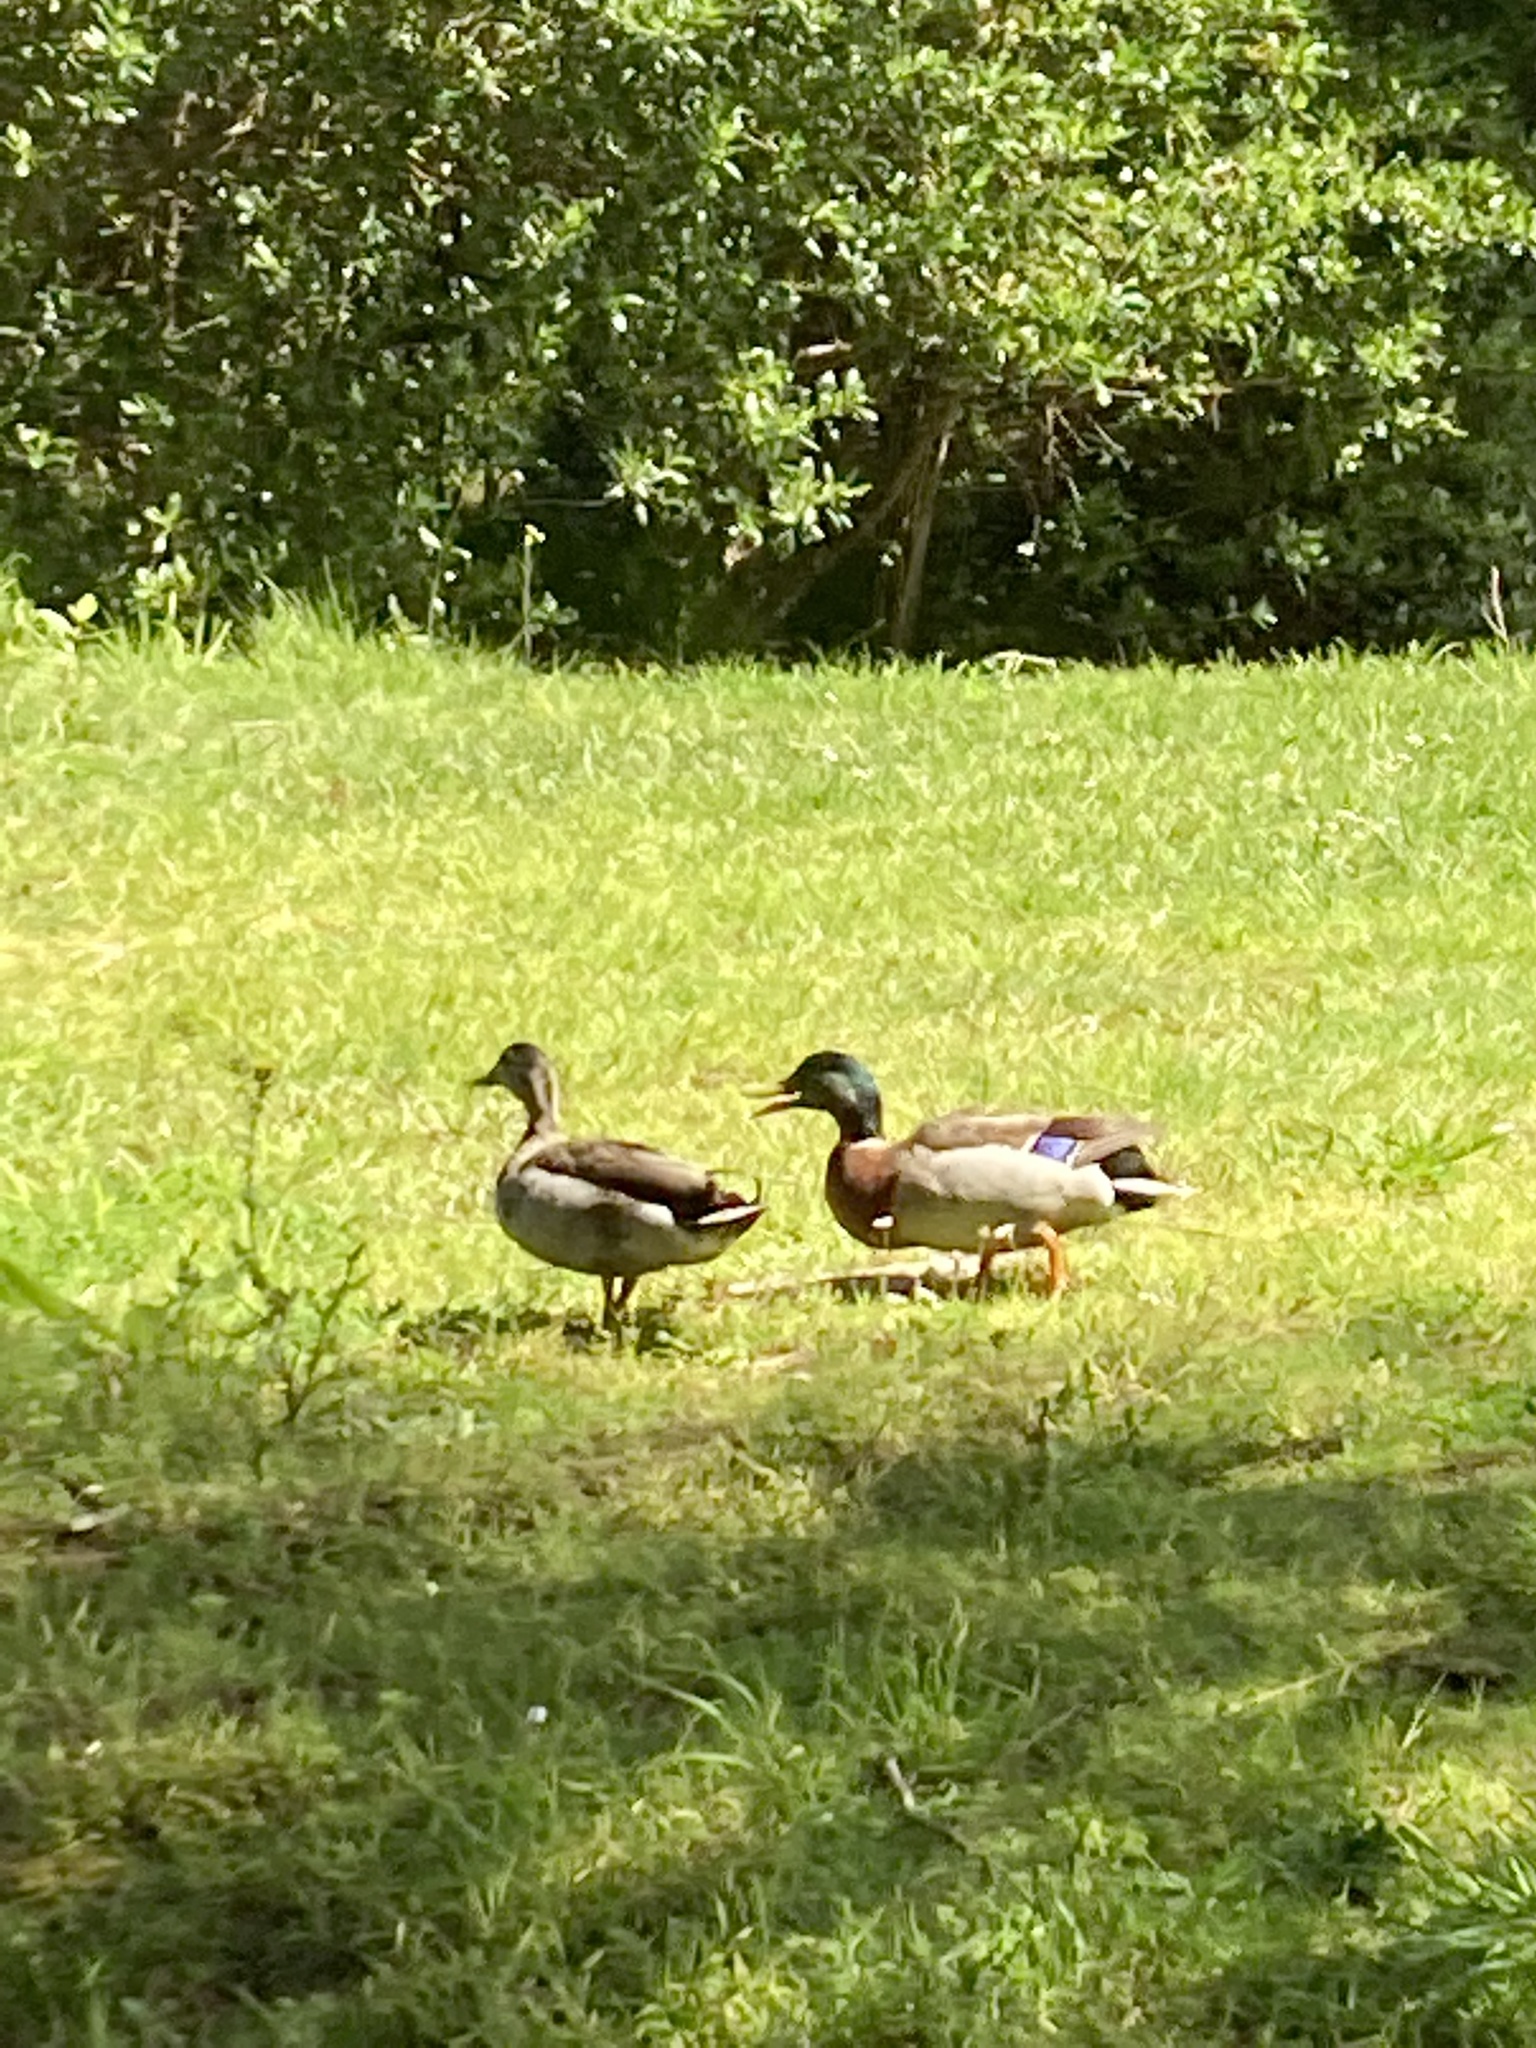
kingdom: Animalia
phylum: Chordata
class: Aves
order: Anseriformes
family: Anatidae
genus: Anas
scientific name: Anas platyrhynchos
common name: Mallard
